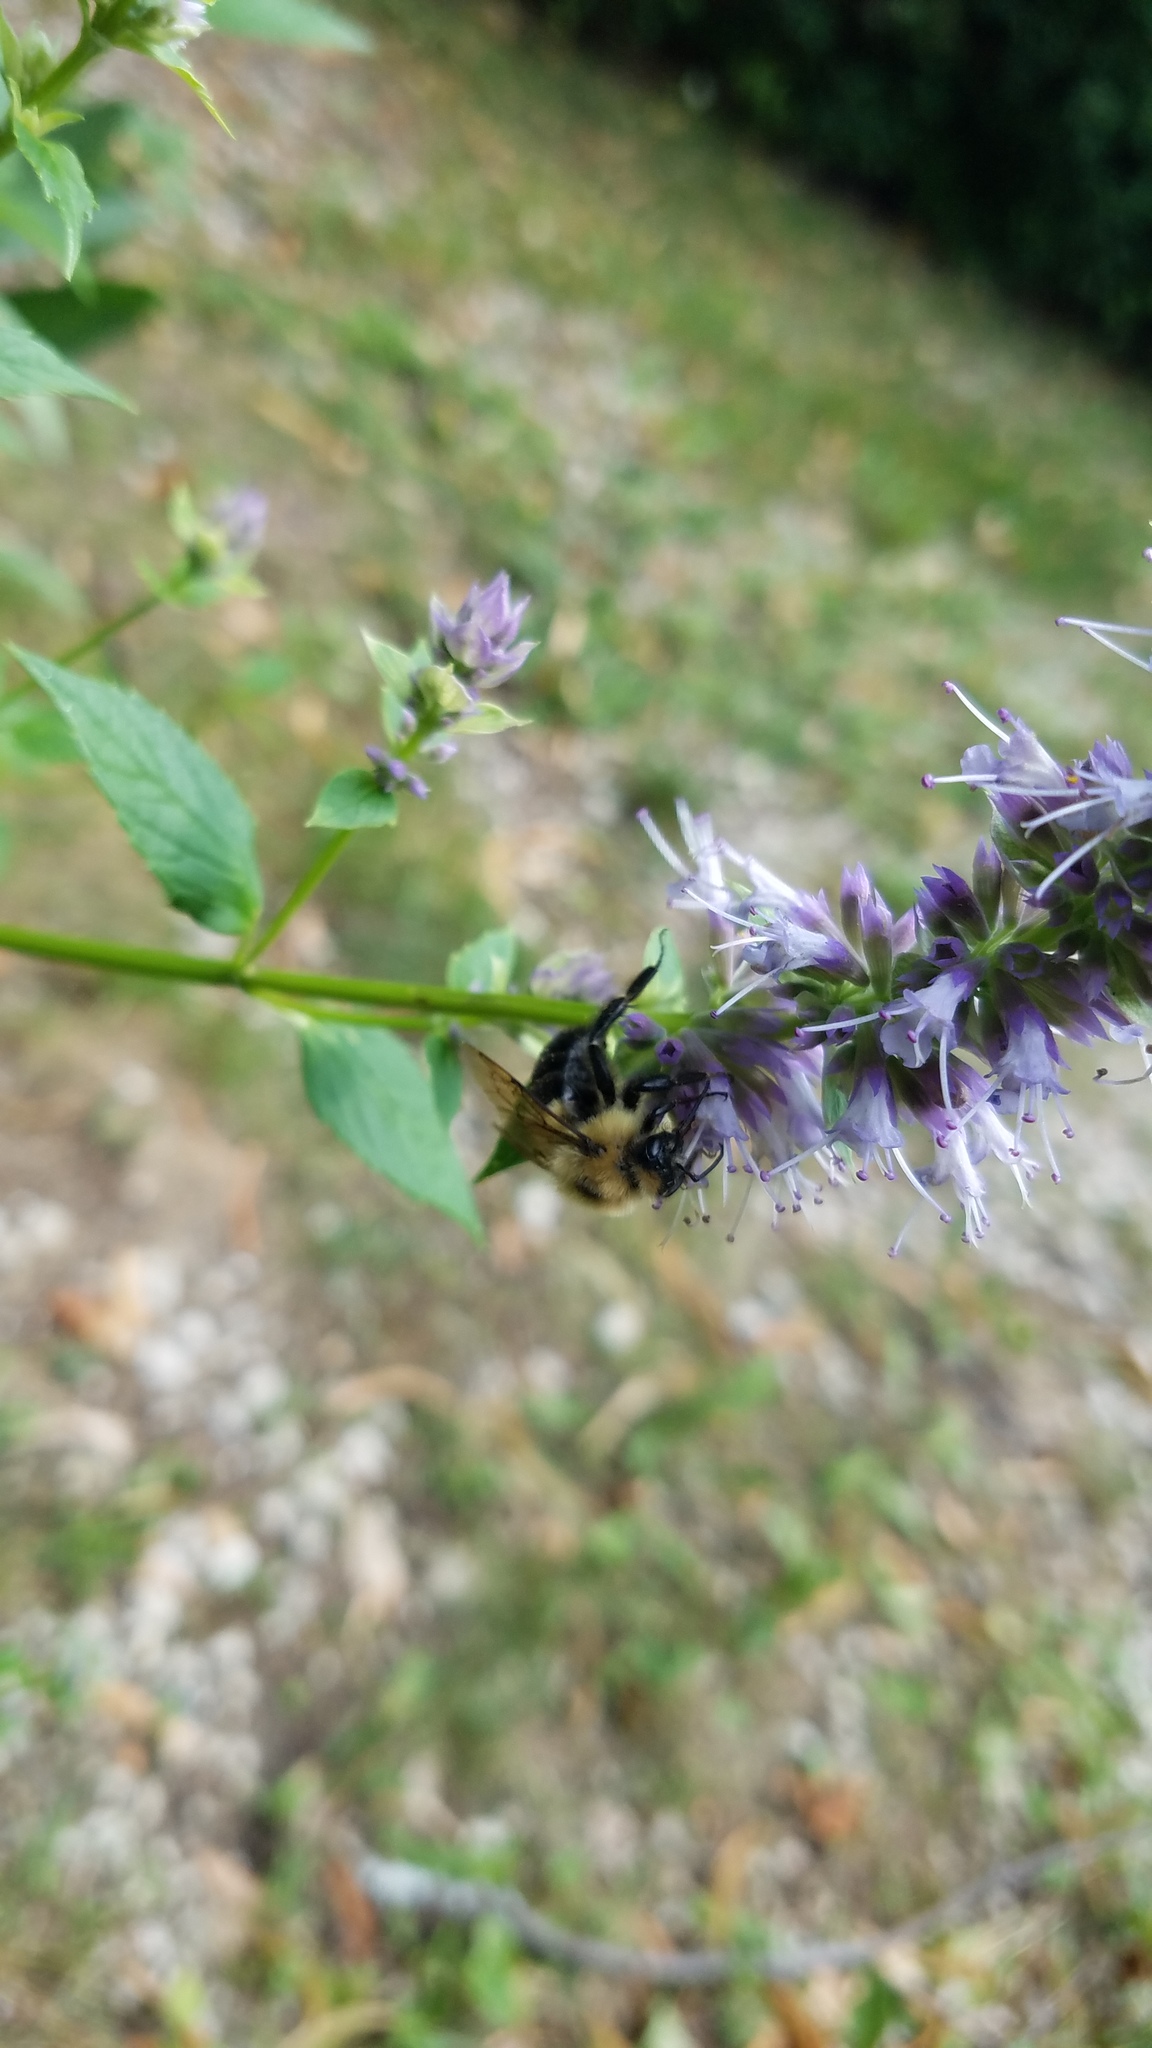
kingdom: Animalia
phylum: Arthropoda
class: Insecta
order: Hymenoptera
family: Apidae
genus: Bombus
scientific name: Bombus bimaculatus
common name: Two-spotted bumble bee
